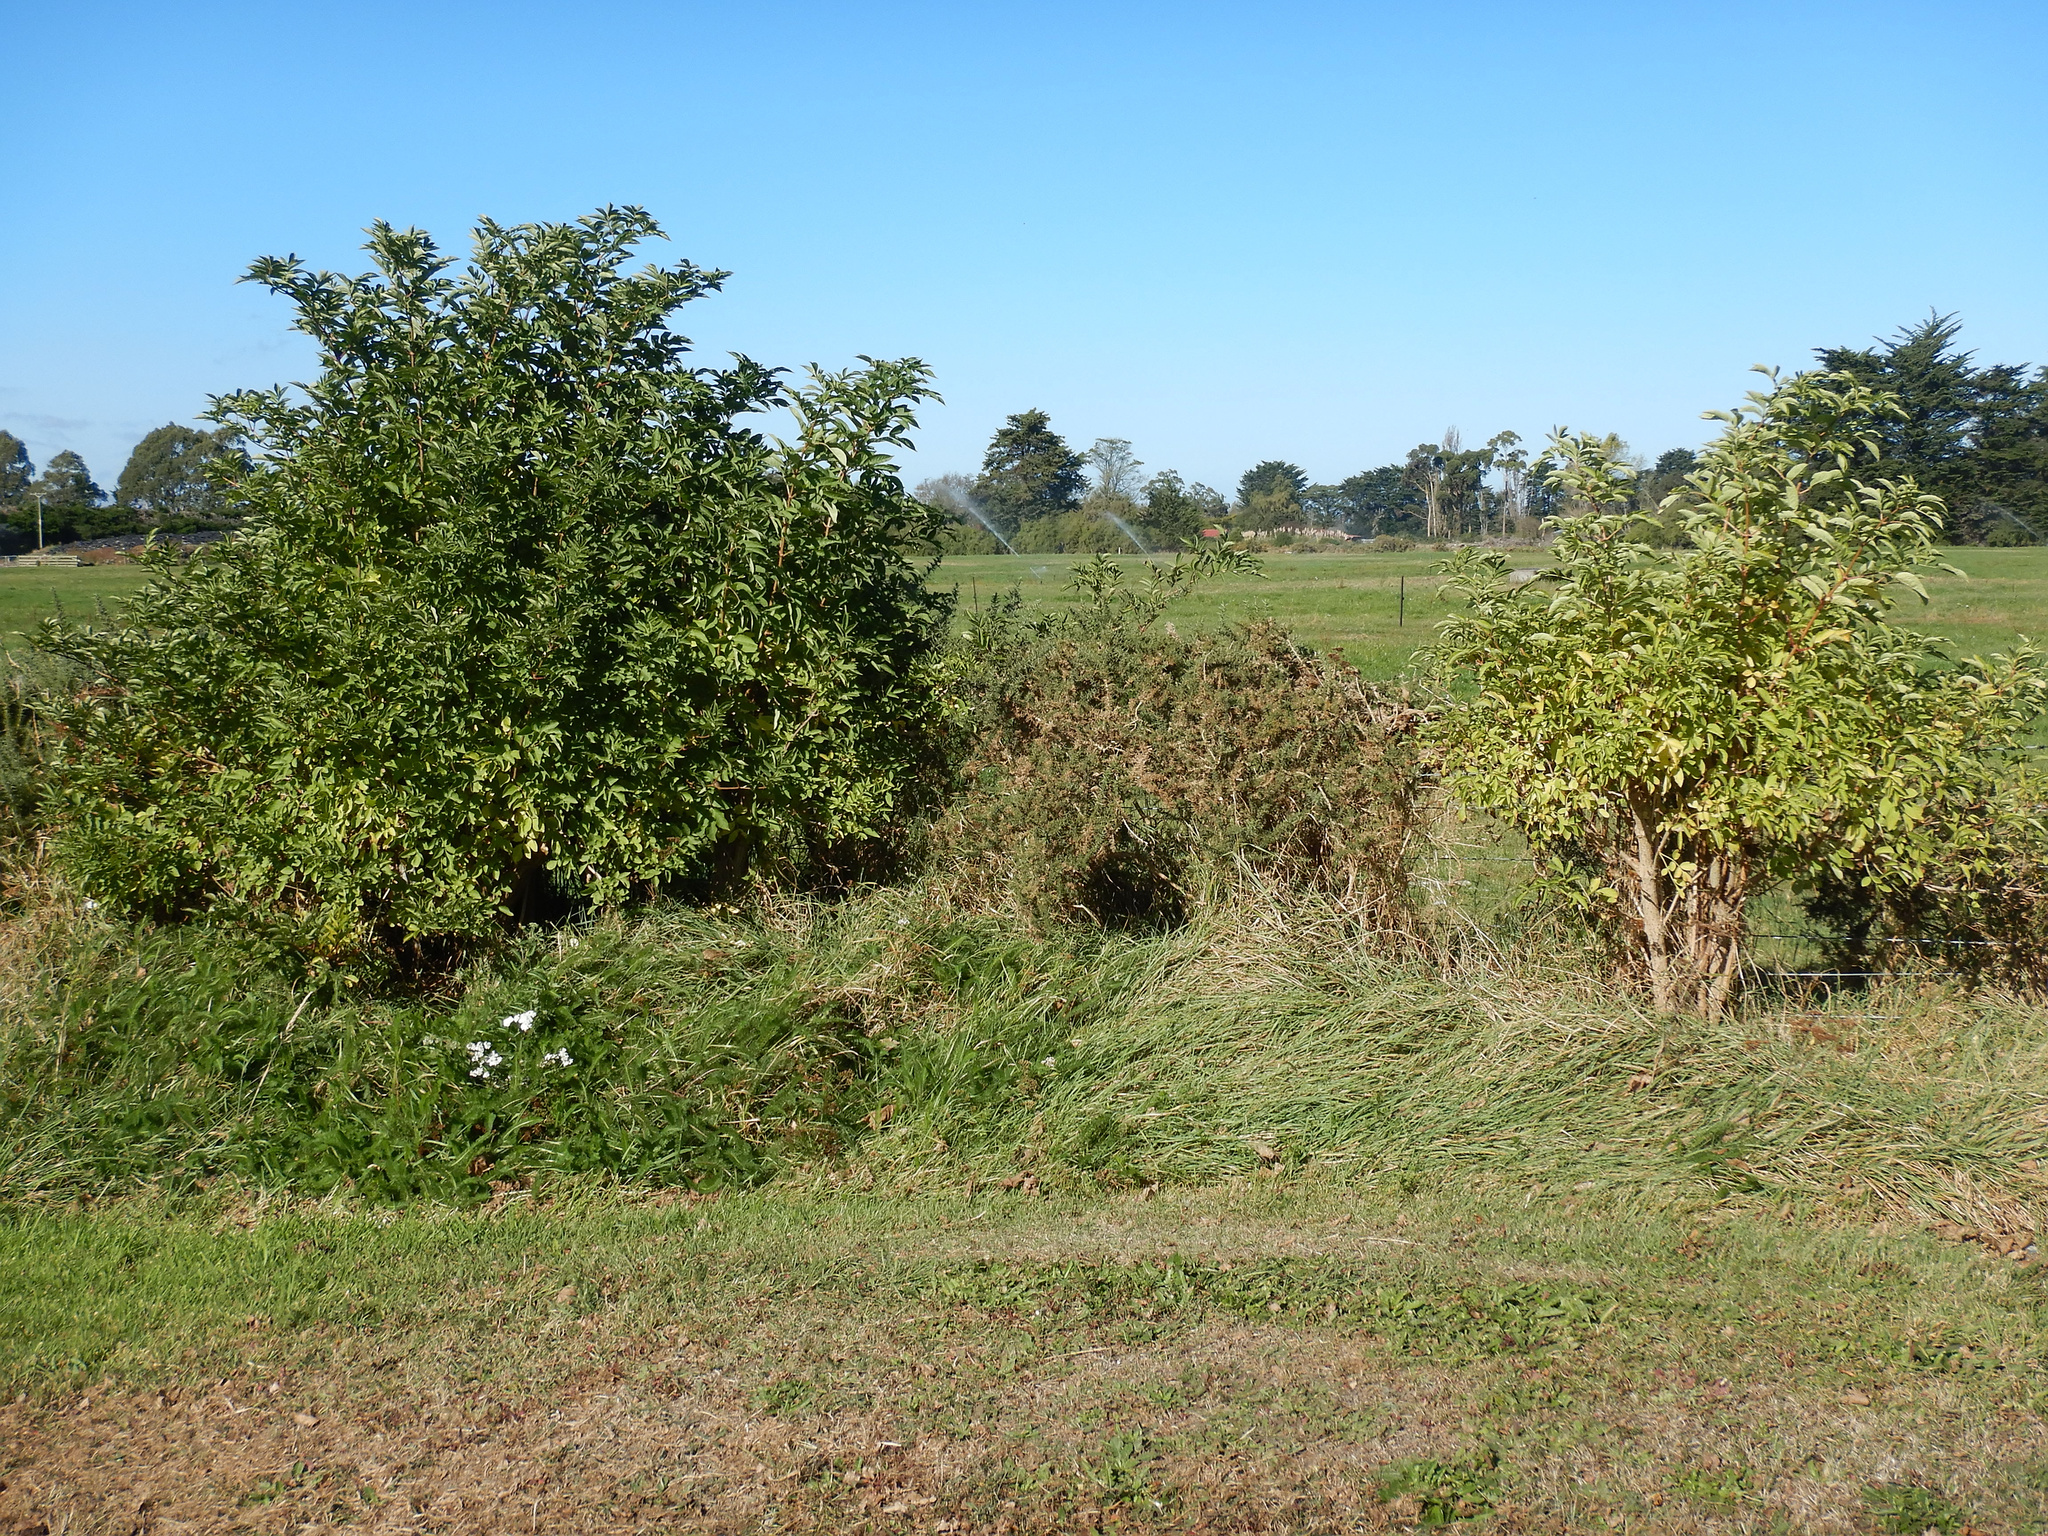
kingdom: Plantae
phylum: Tracheophyta
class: Magnoliopsida
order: Dipsacales
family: Viburnaceae
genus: Sambucus
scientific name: Sambucus nigra
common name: Elder
